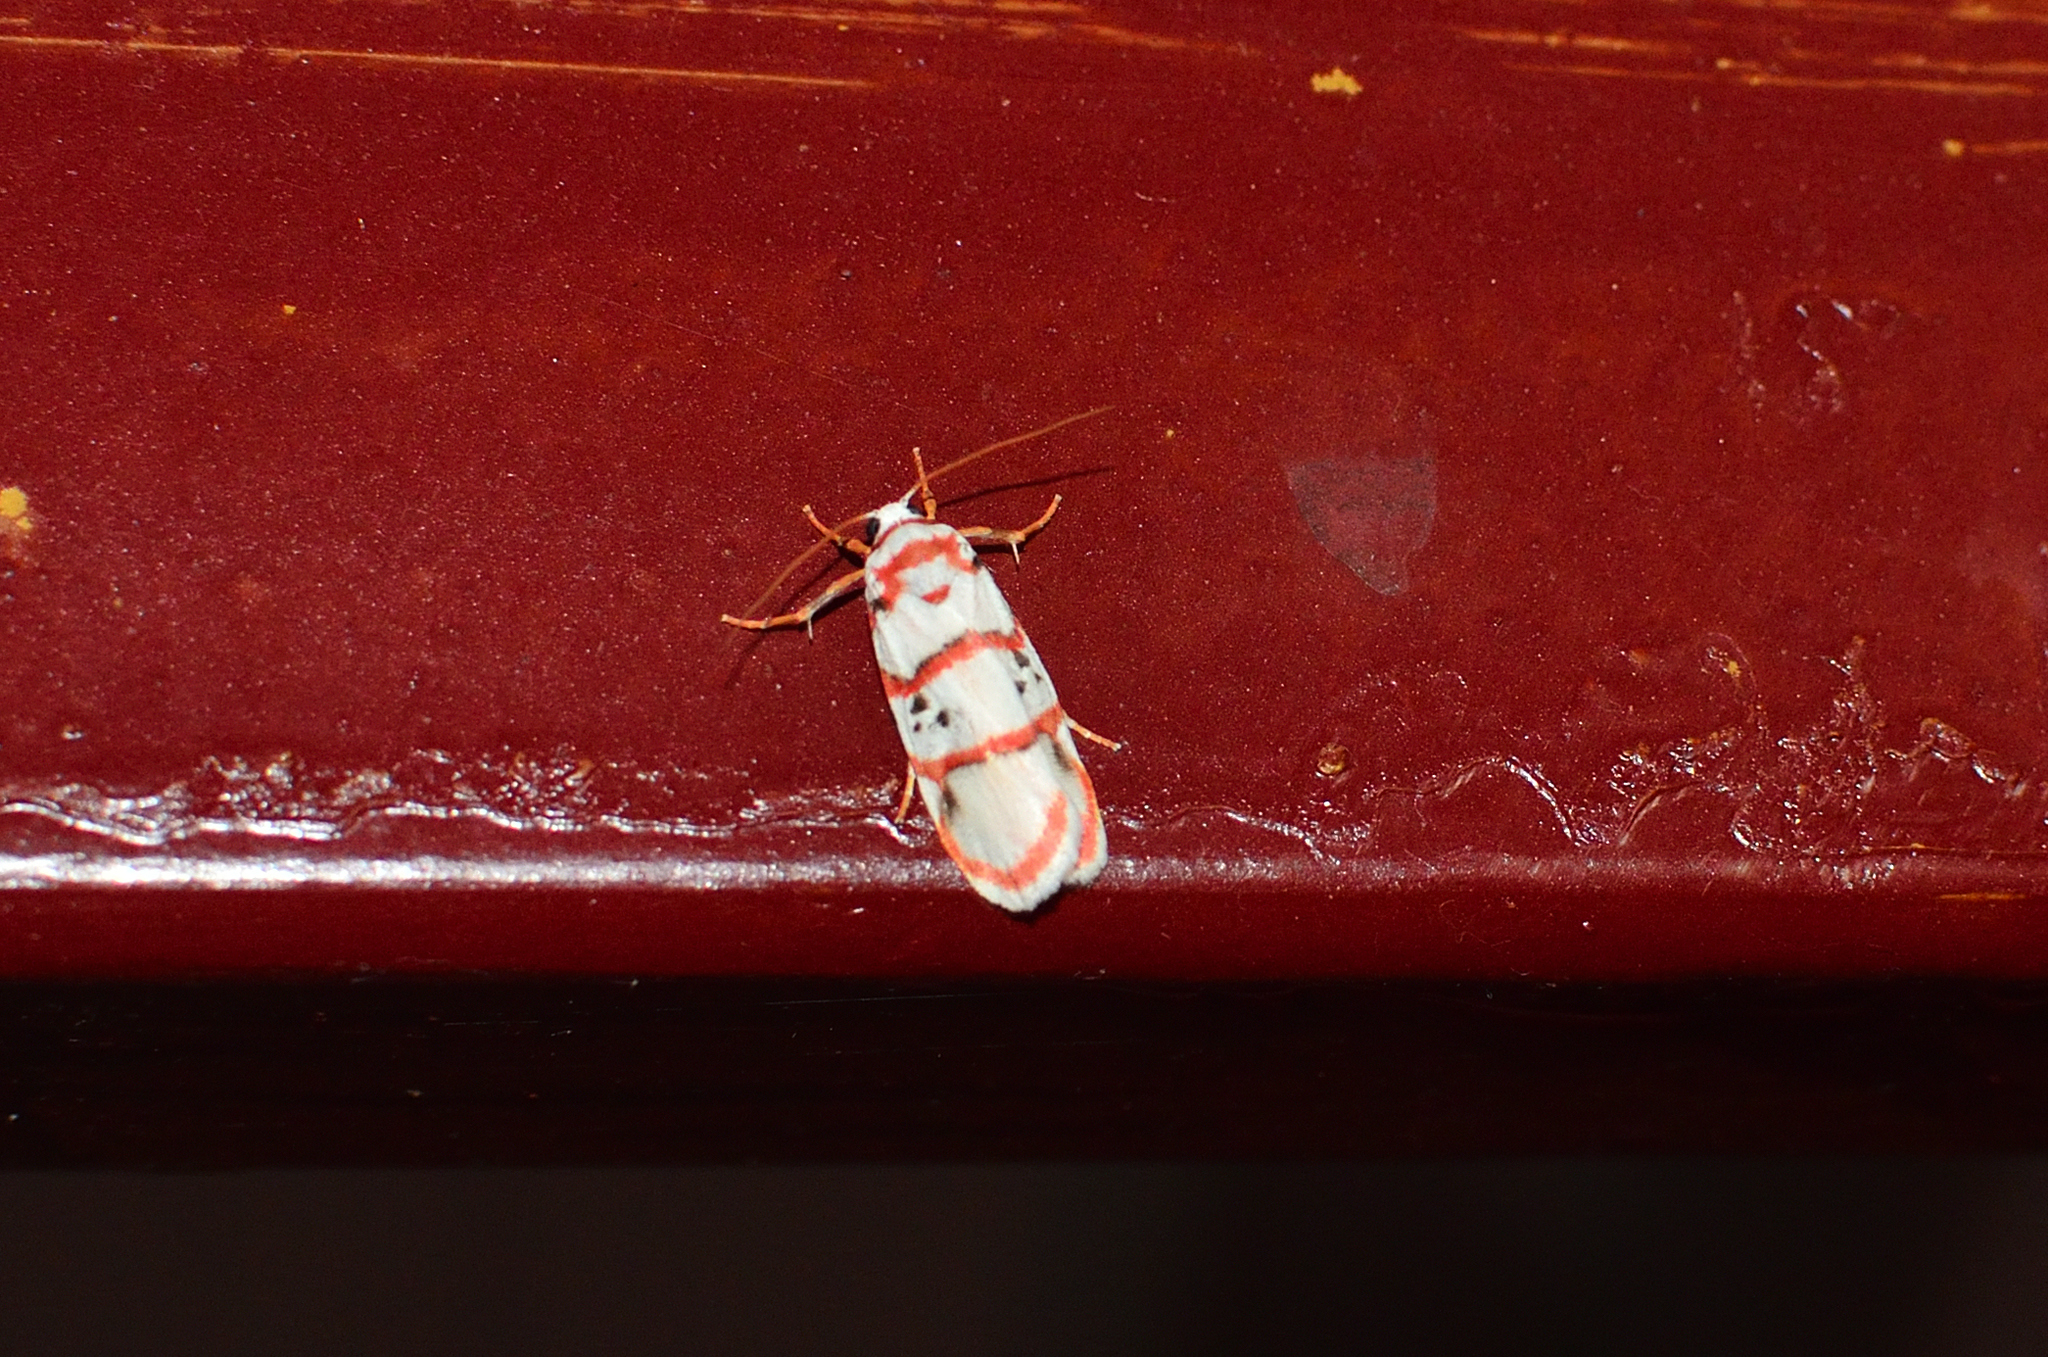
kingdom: Animalia
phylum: Arthropoda
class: Insecta
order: Lepidoptera
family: Erebidae
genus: Cyana
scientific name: Cyana peregrina
